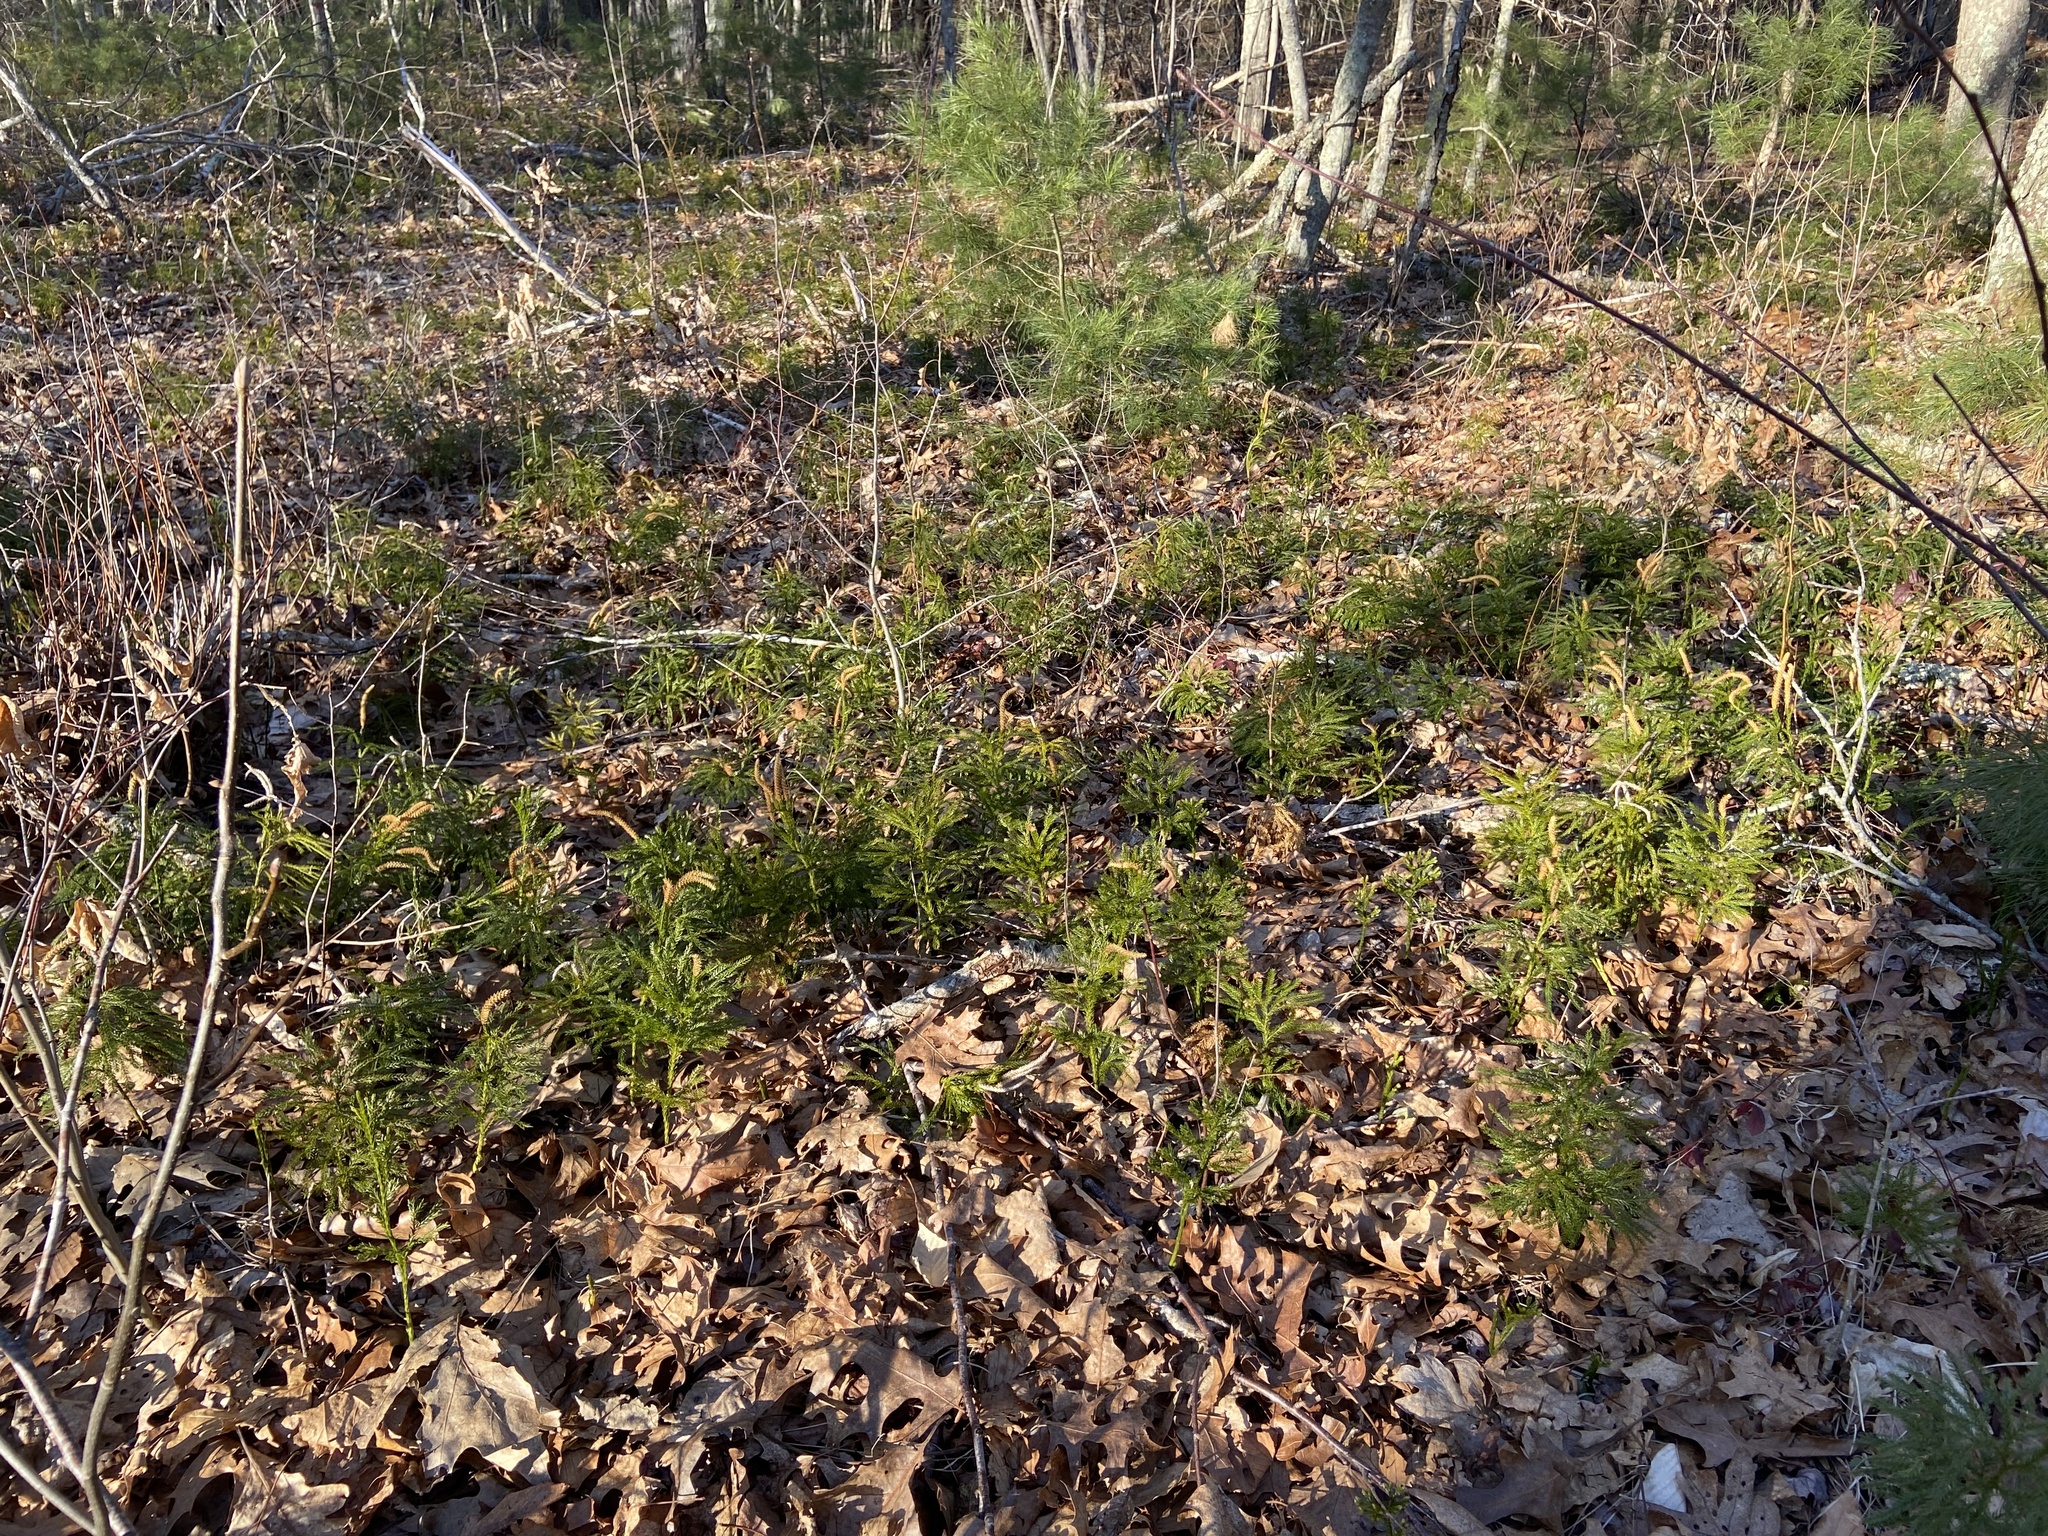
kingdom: Plantae
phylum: Tracheophyta
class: Lycopodiopsida
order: Lycopodiales
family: Lycopodiaceae
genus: Dendrolycopodium
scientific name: Dendrolycopodium obscurum
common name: Common ground-pine
